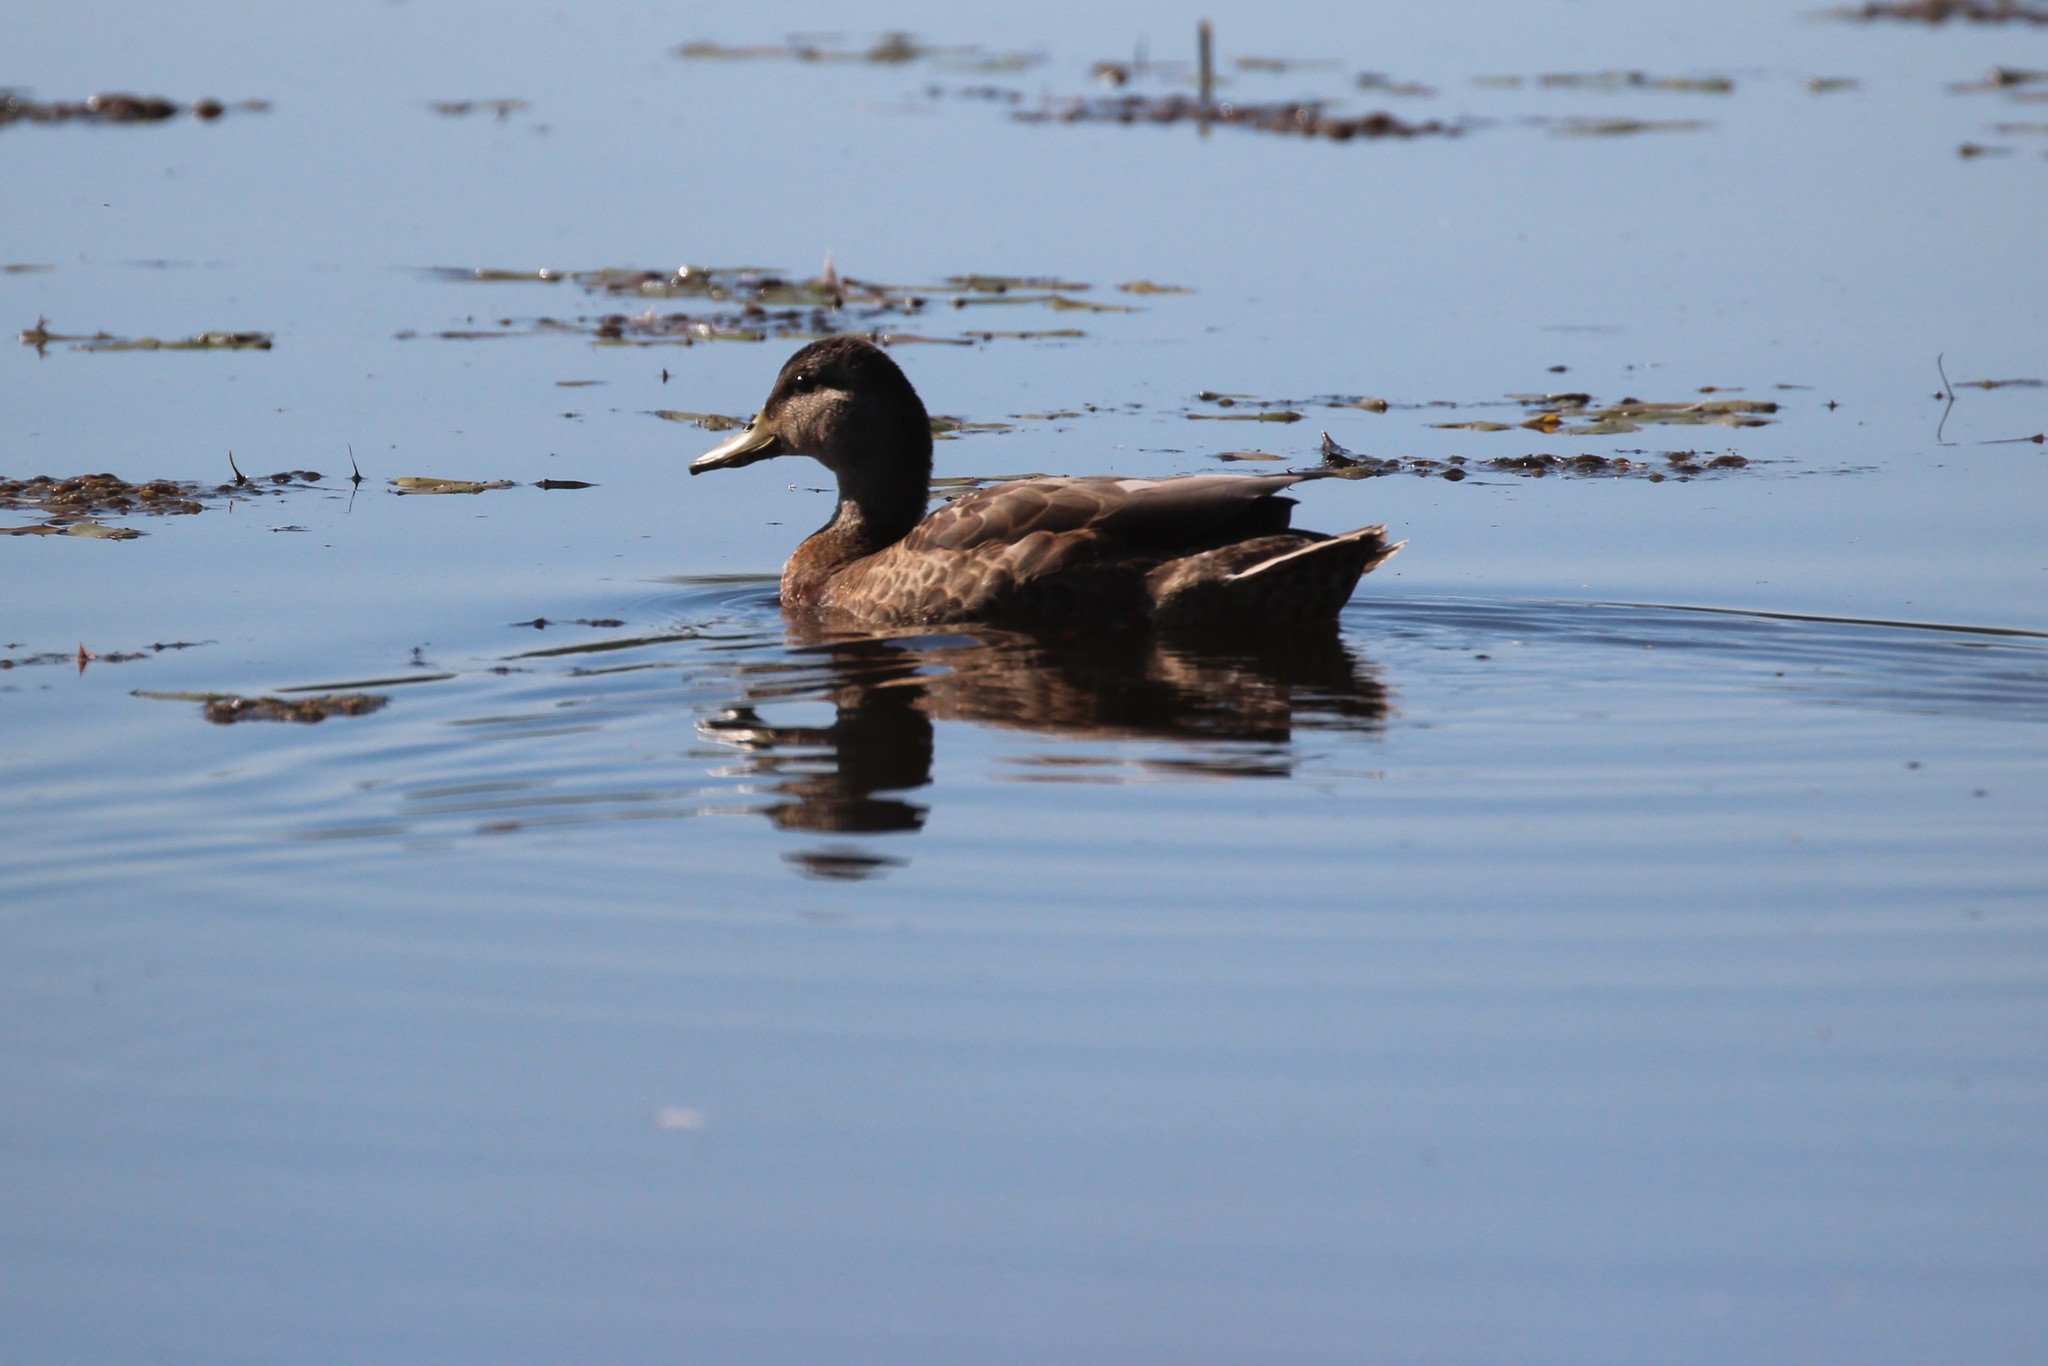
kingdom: Animalia
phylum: Chordata
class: Aves
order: Anseriformes
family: Anatidae
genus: Anas
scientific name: Anas rubripes
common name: American black duck
